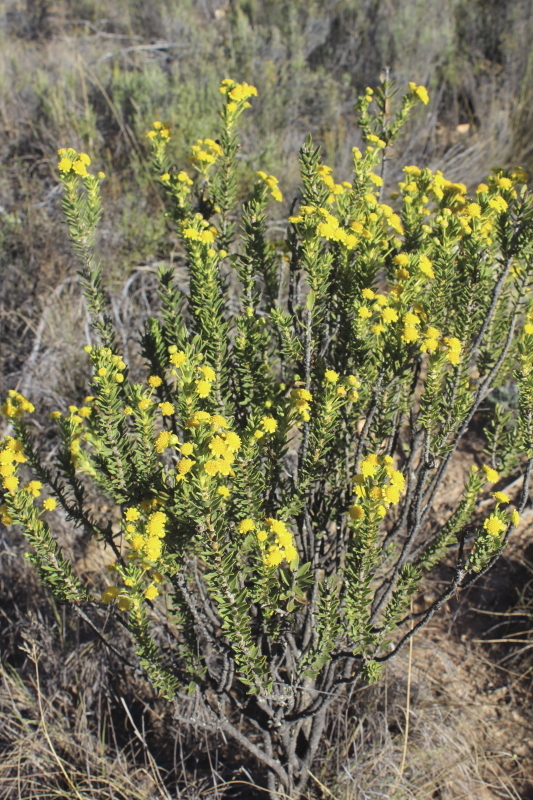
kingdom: Plantae
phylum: Tracheophyta
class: Magnoliopsida
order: Asterales
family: Asteraceae
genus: Euryops
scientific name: Euryops lateriflorus
